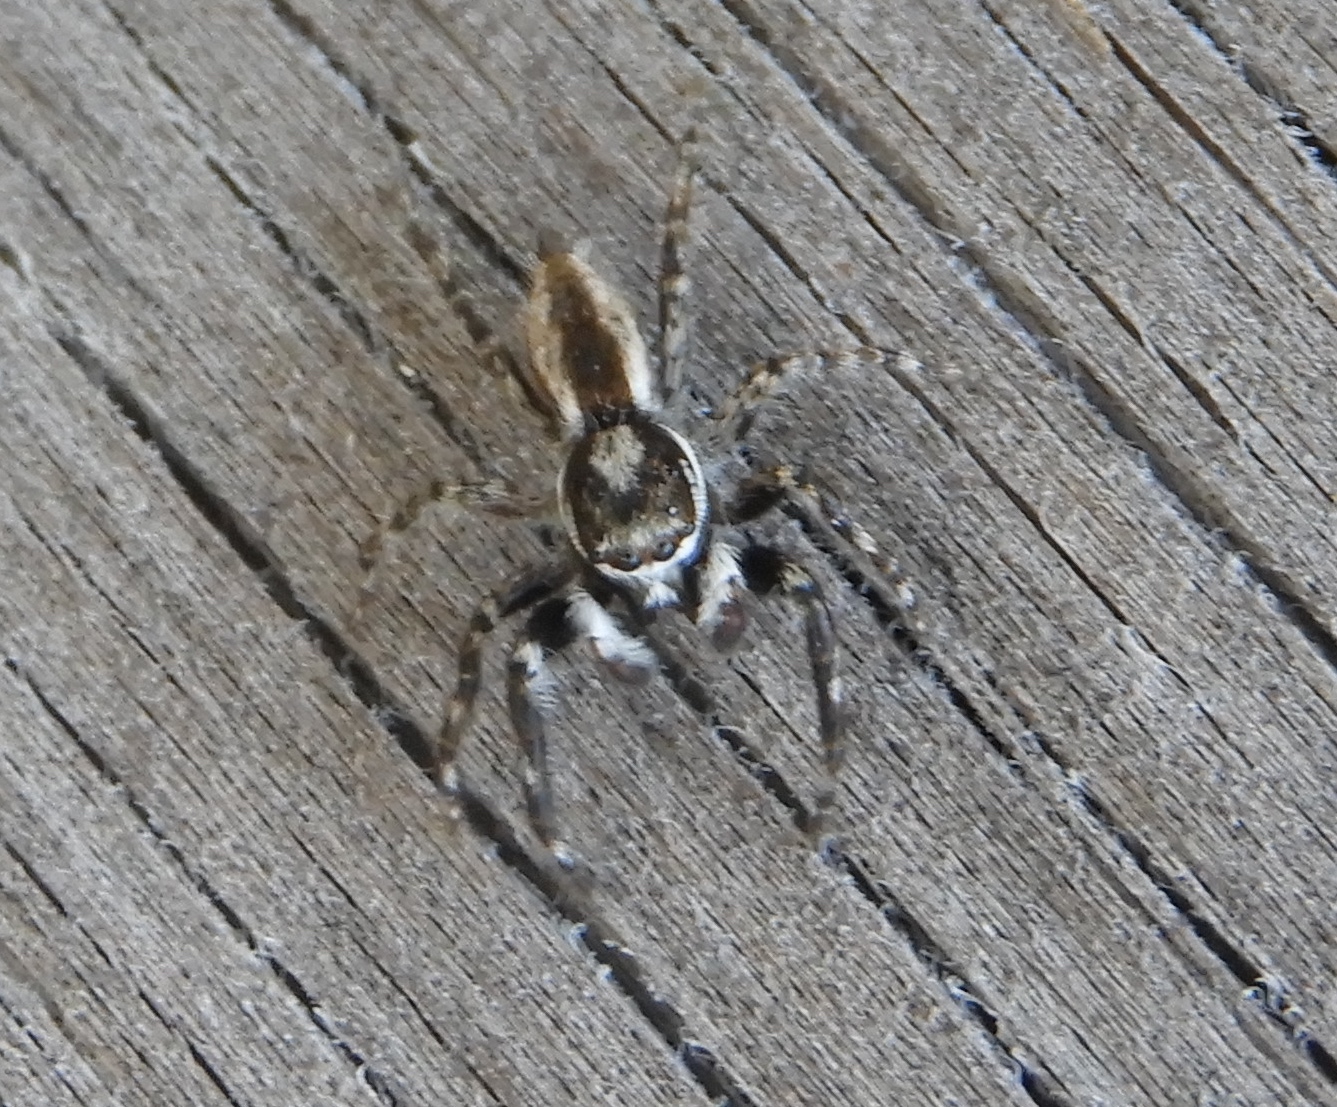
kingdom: Animalia
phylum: Arthropoda
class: Arachnida
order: Araneae
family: Salticidae
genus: Menemerus
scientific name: Menemerus
